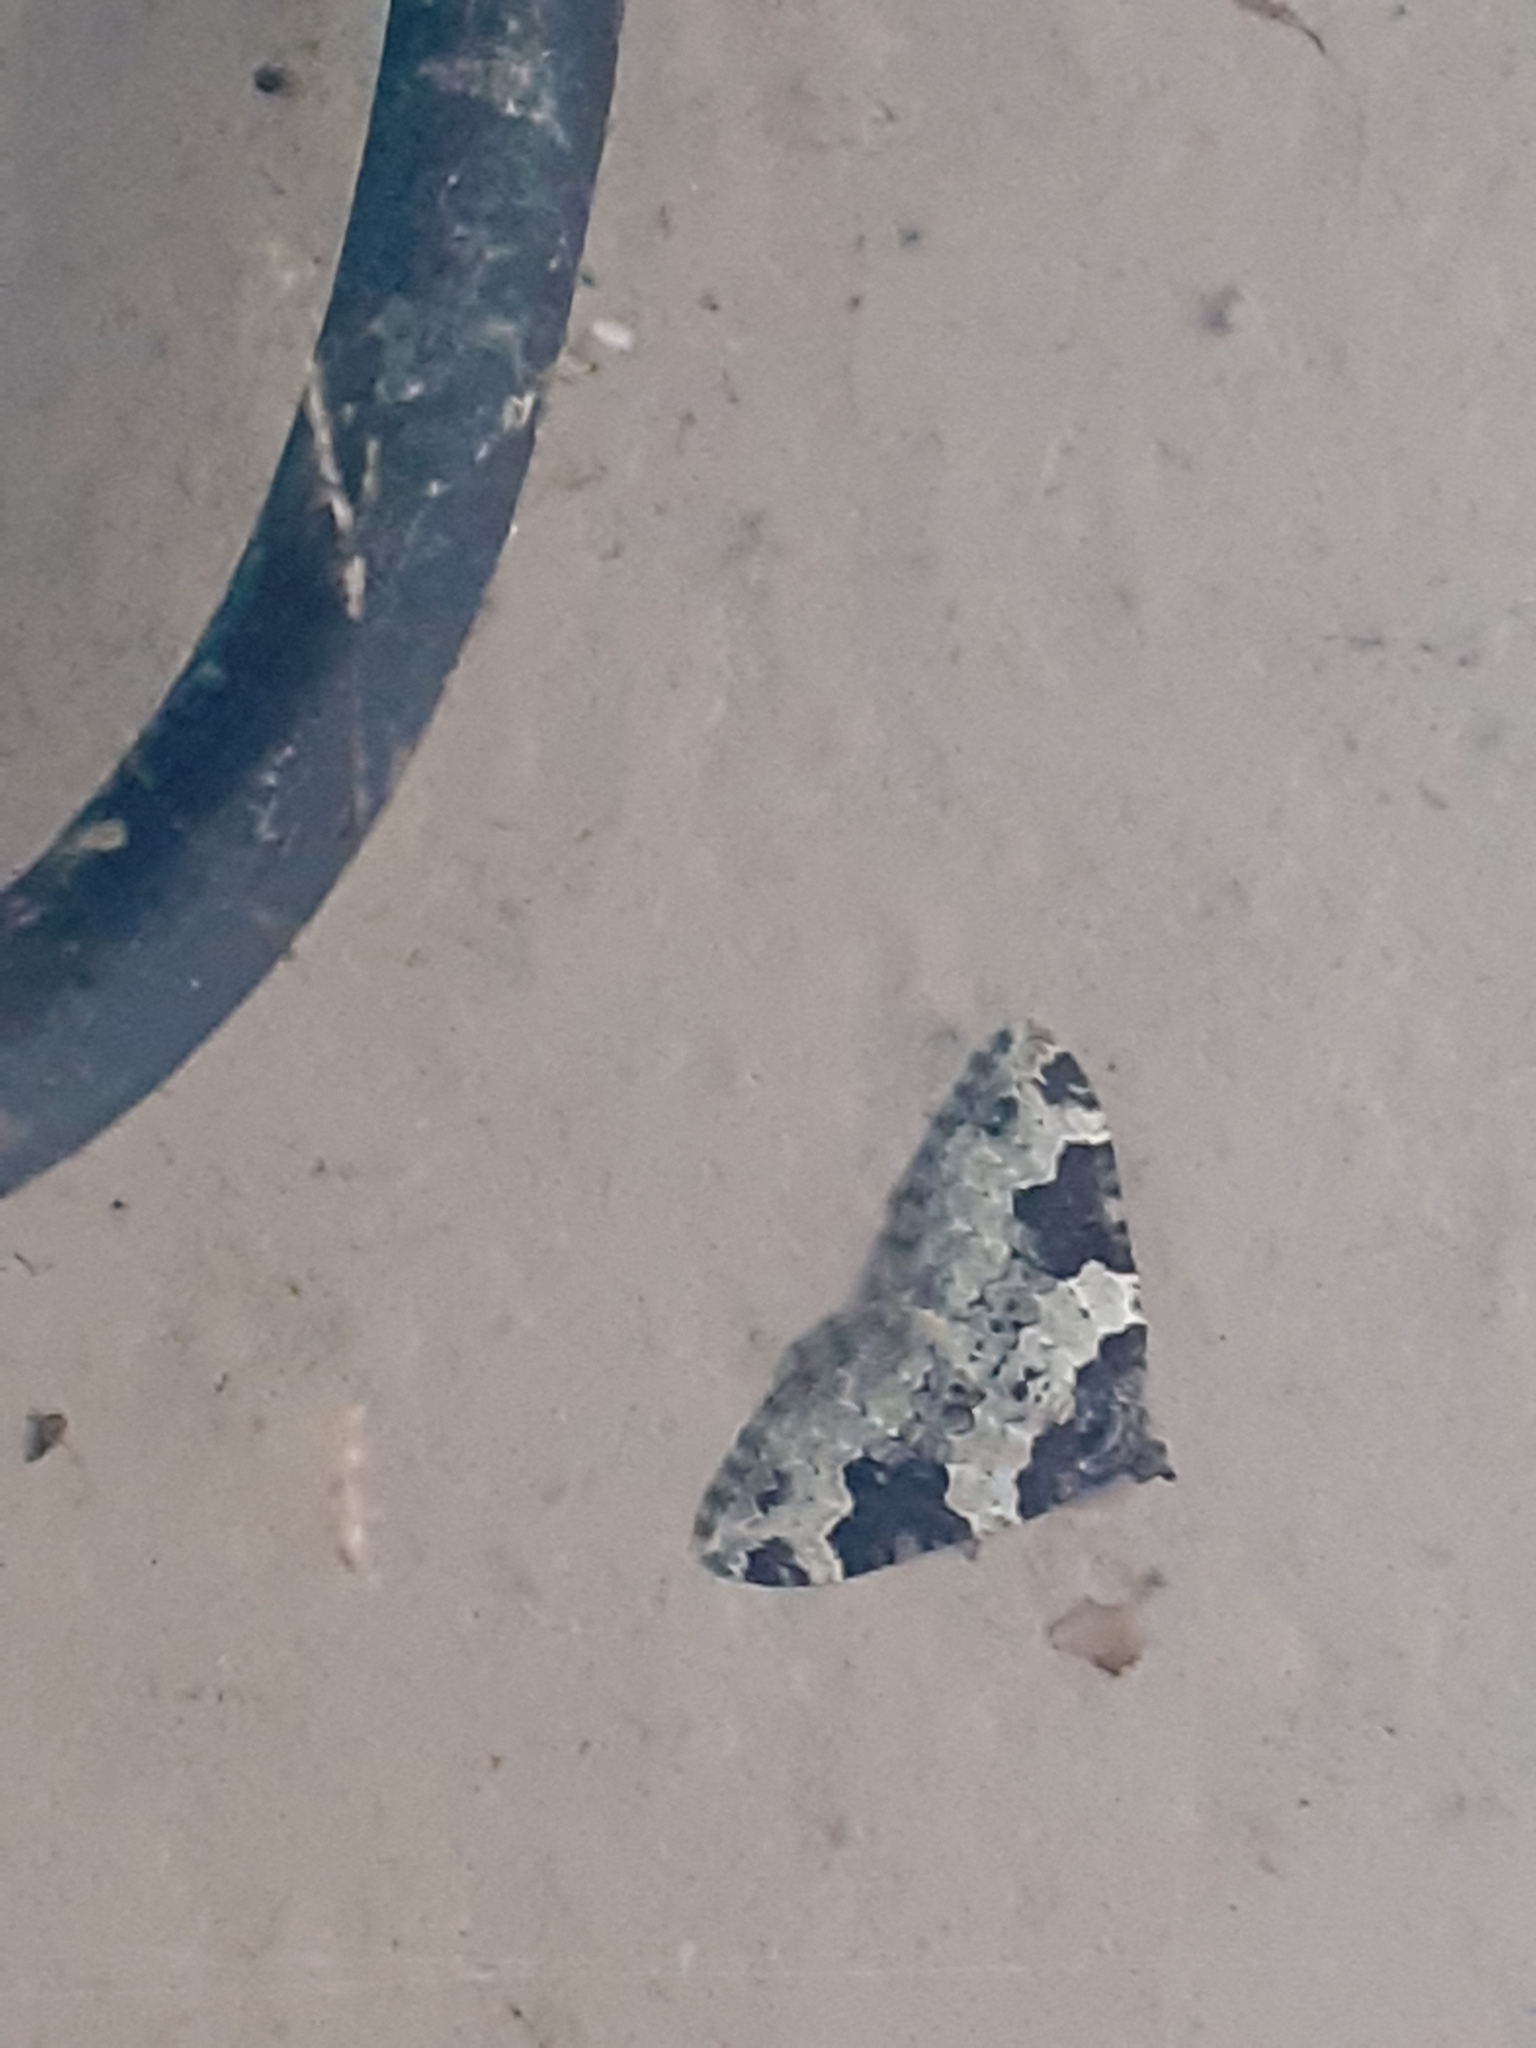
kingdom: Animalia
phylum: Arthropoda
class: Insecta
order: Lepidoptera
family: Geometridae
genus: Xanthorhoe
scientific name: Xanthorhoe fluctuata
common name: Garden carpet
